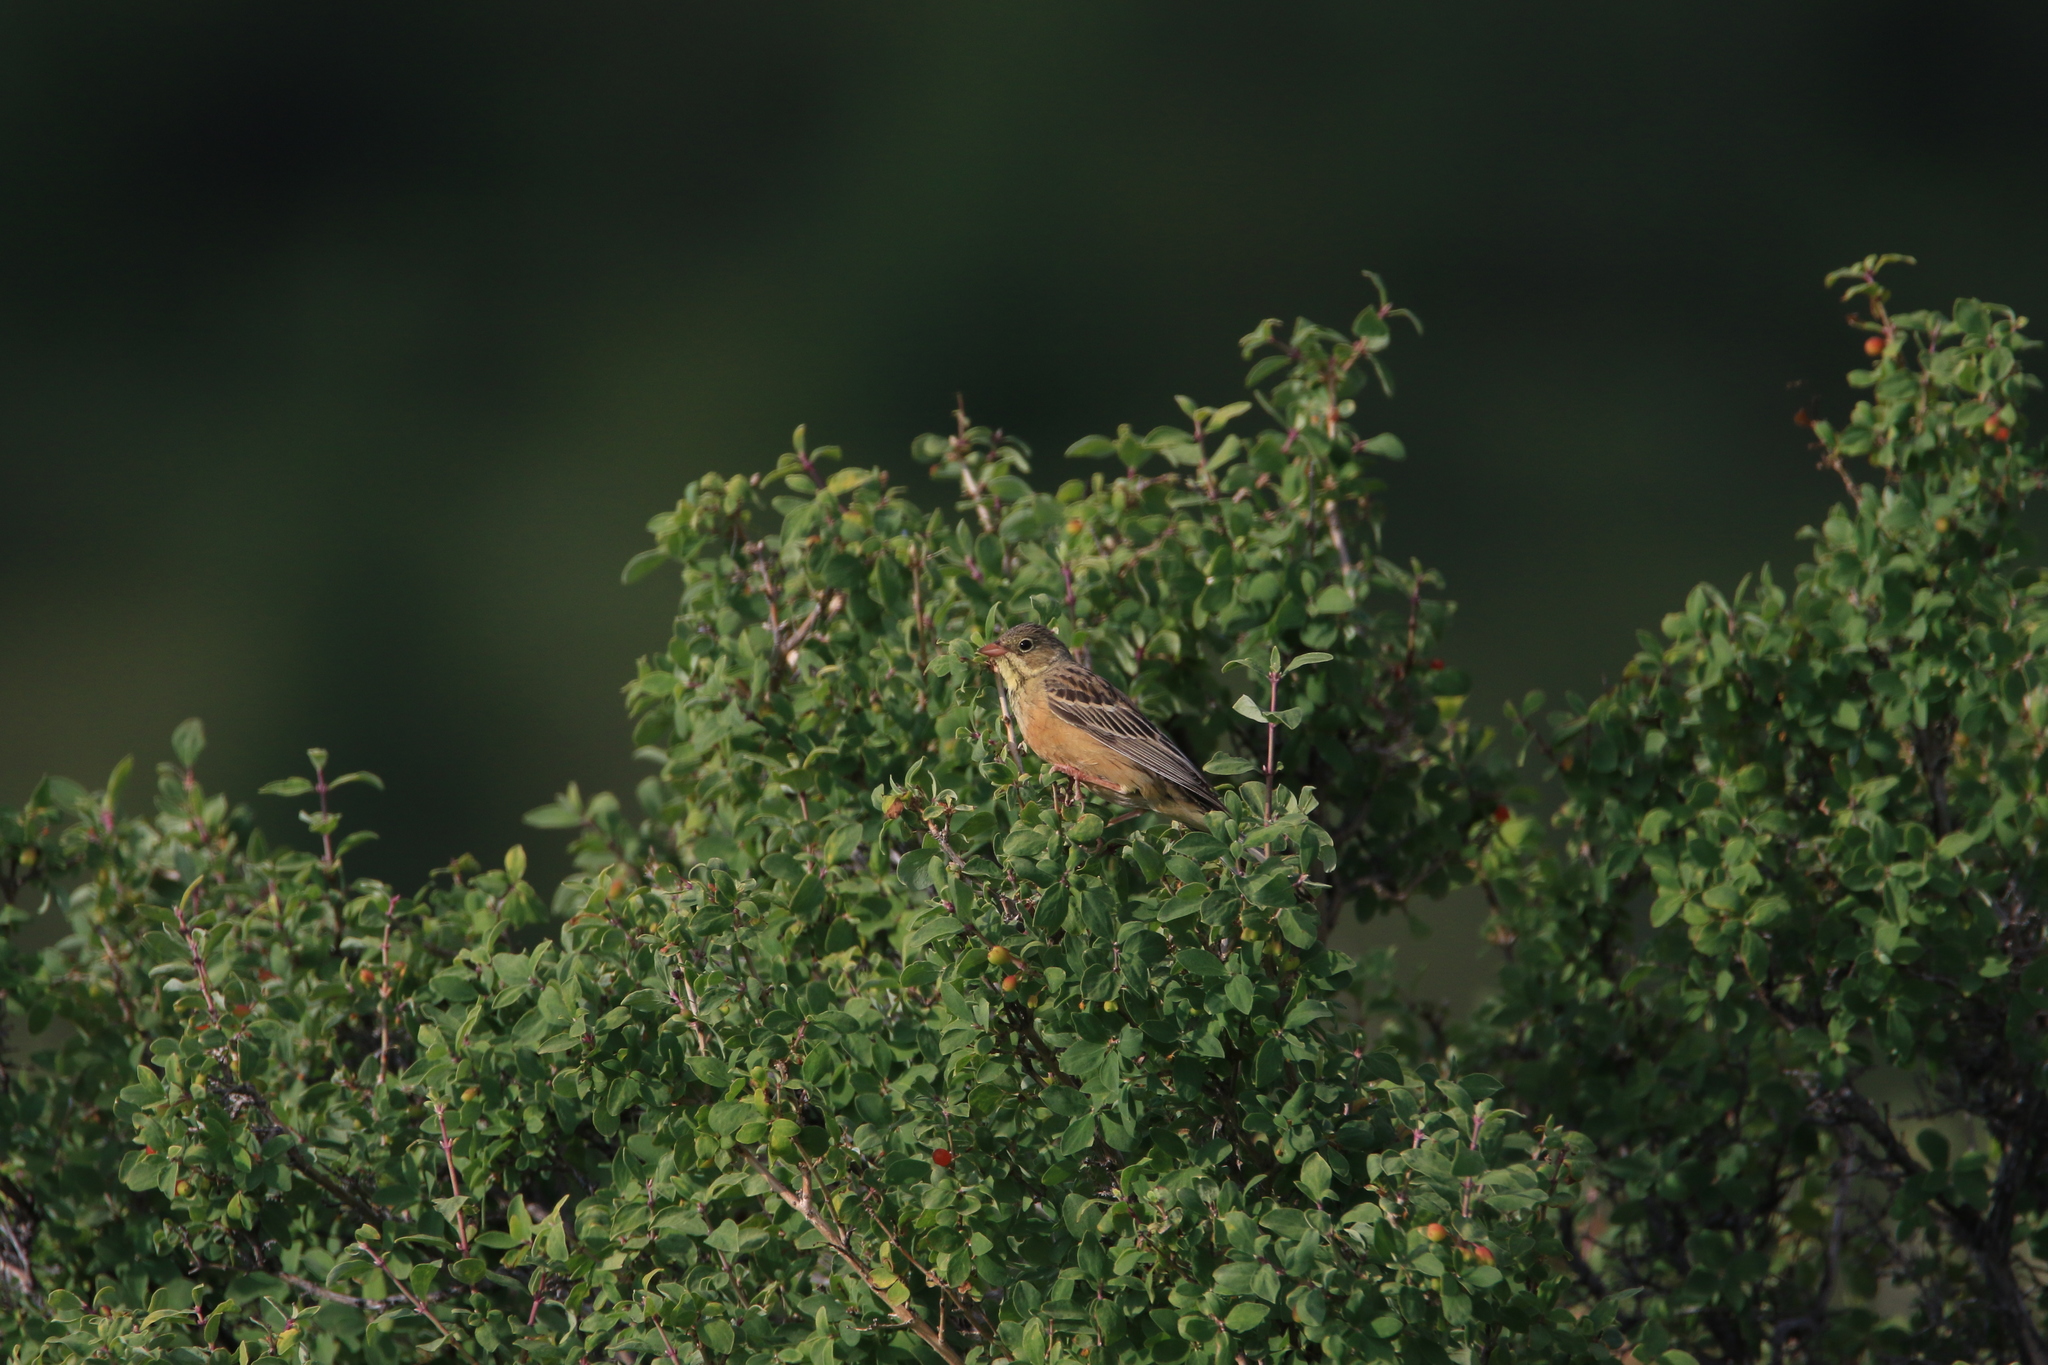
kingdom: Animalia
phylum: Chordata
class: Aves
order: Passeriformes
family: Emberizidae
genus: Emberiza
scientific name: Emberiza hortulana
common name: Ortolan bunting
